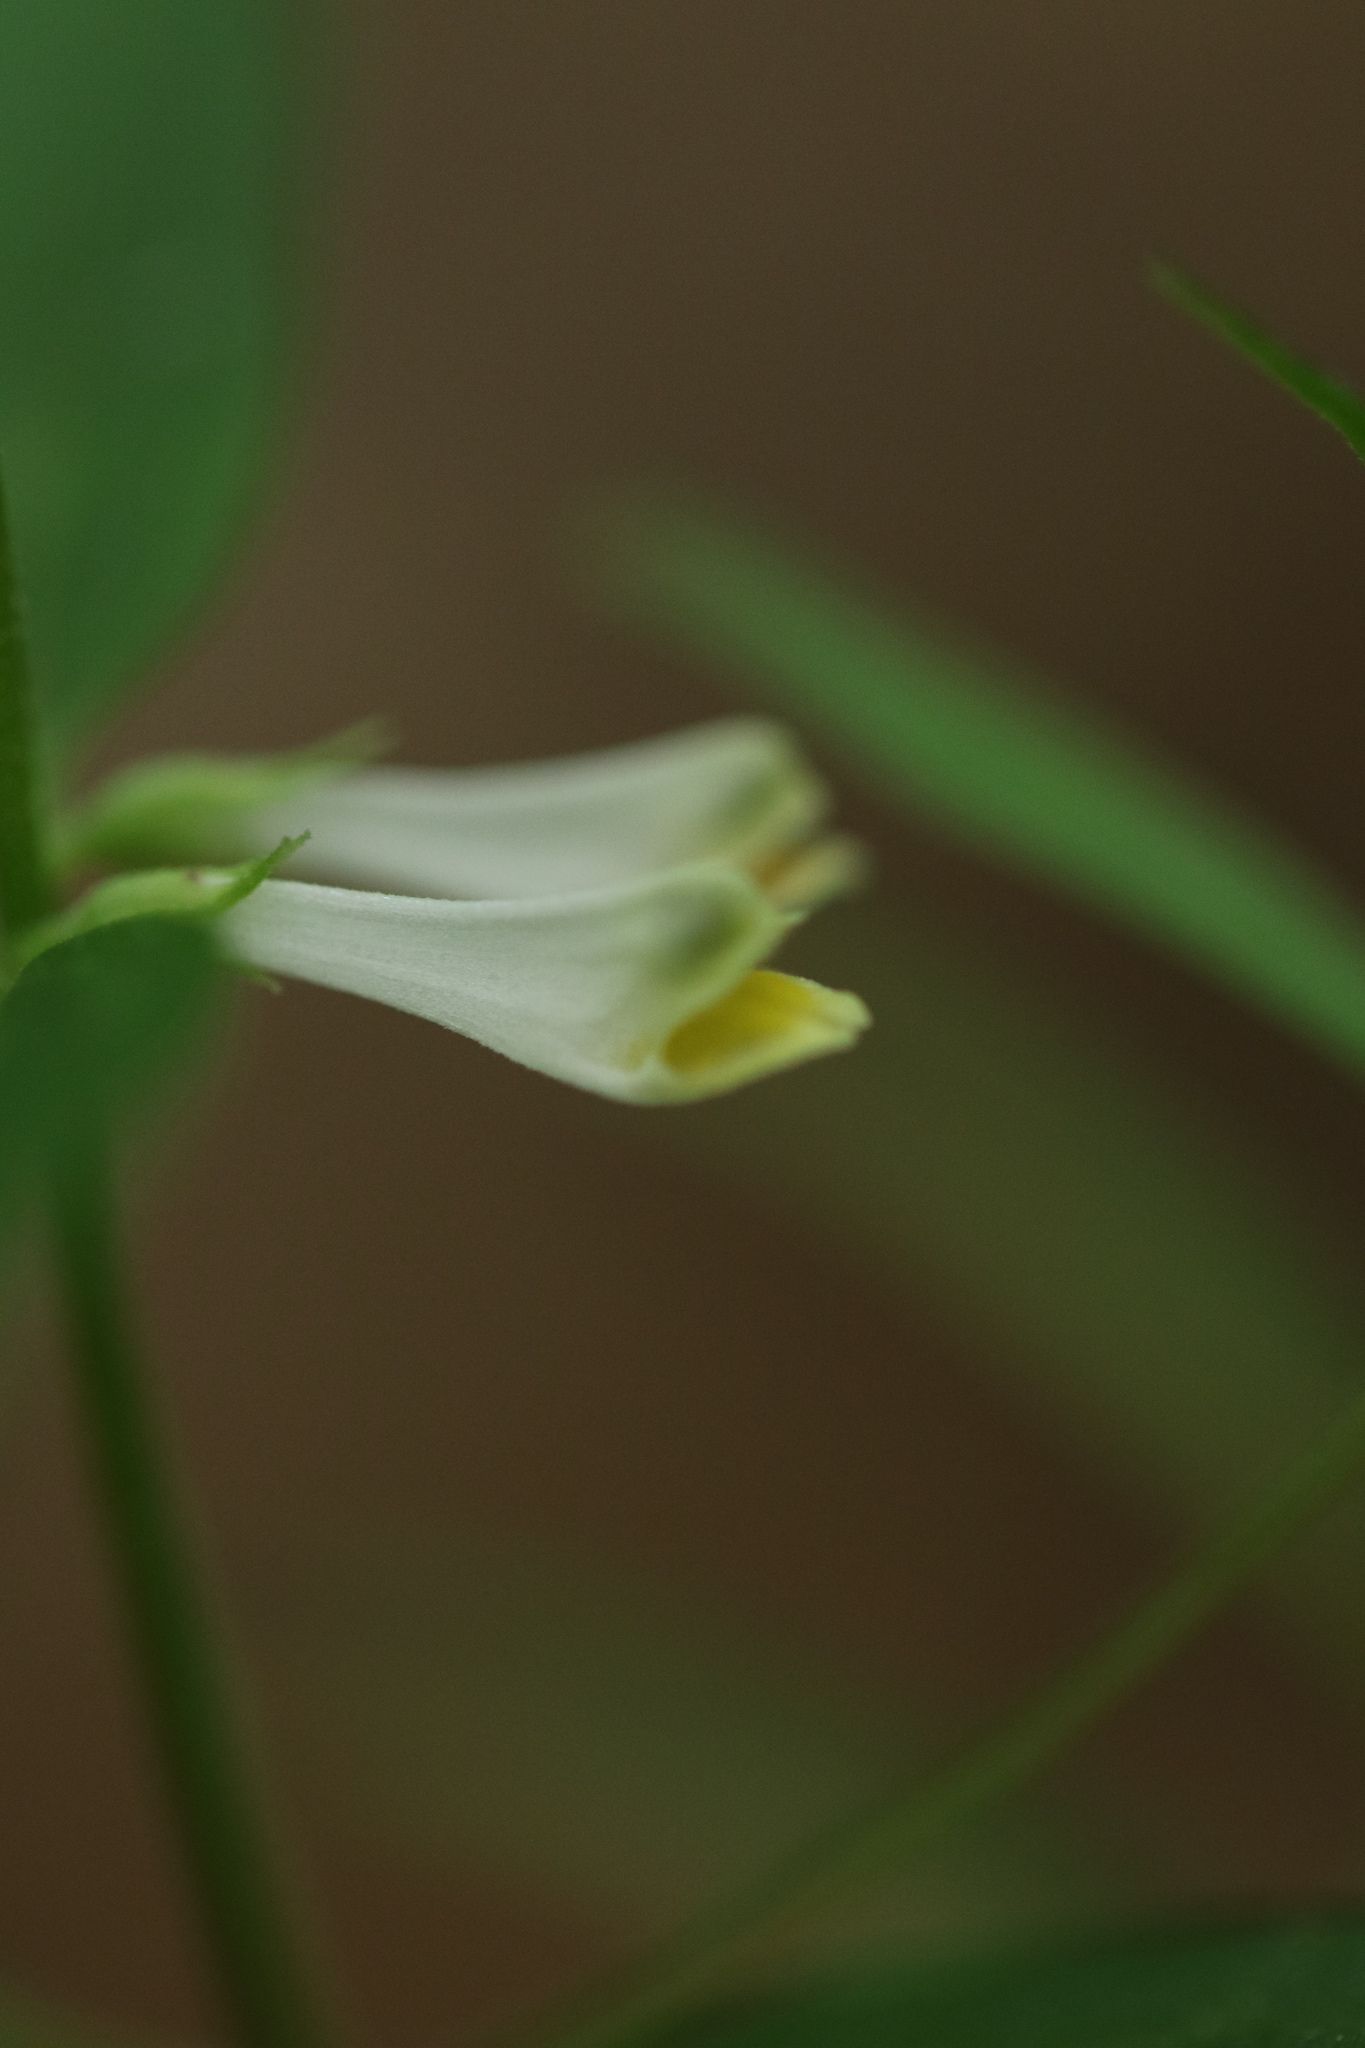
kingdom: Plantae
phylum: Tracheophyta
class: Magnoliopsida
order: Lamiales
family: Orobanchaceae
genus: Melampyrum
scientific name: Melampyrum lineare
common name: American cow-wheat
